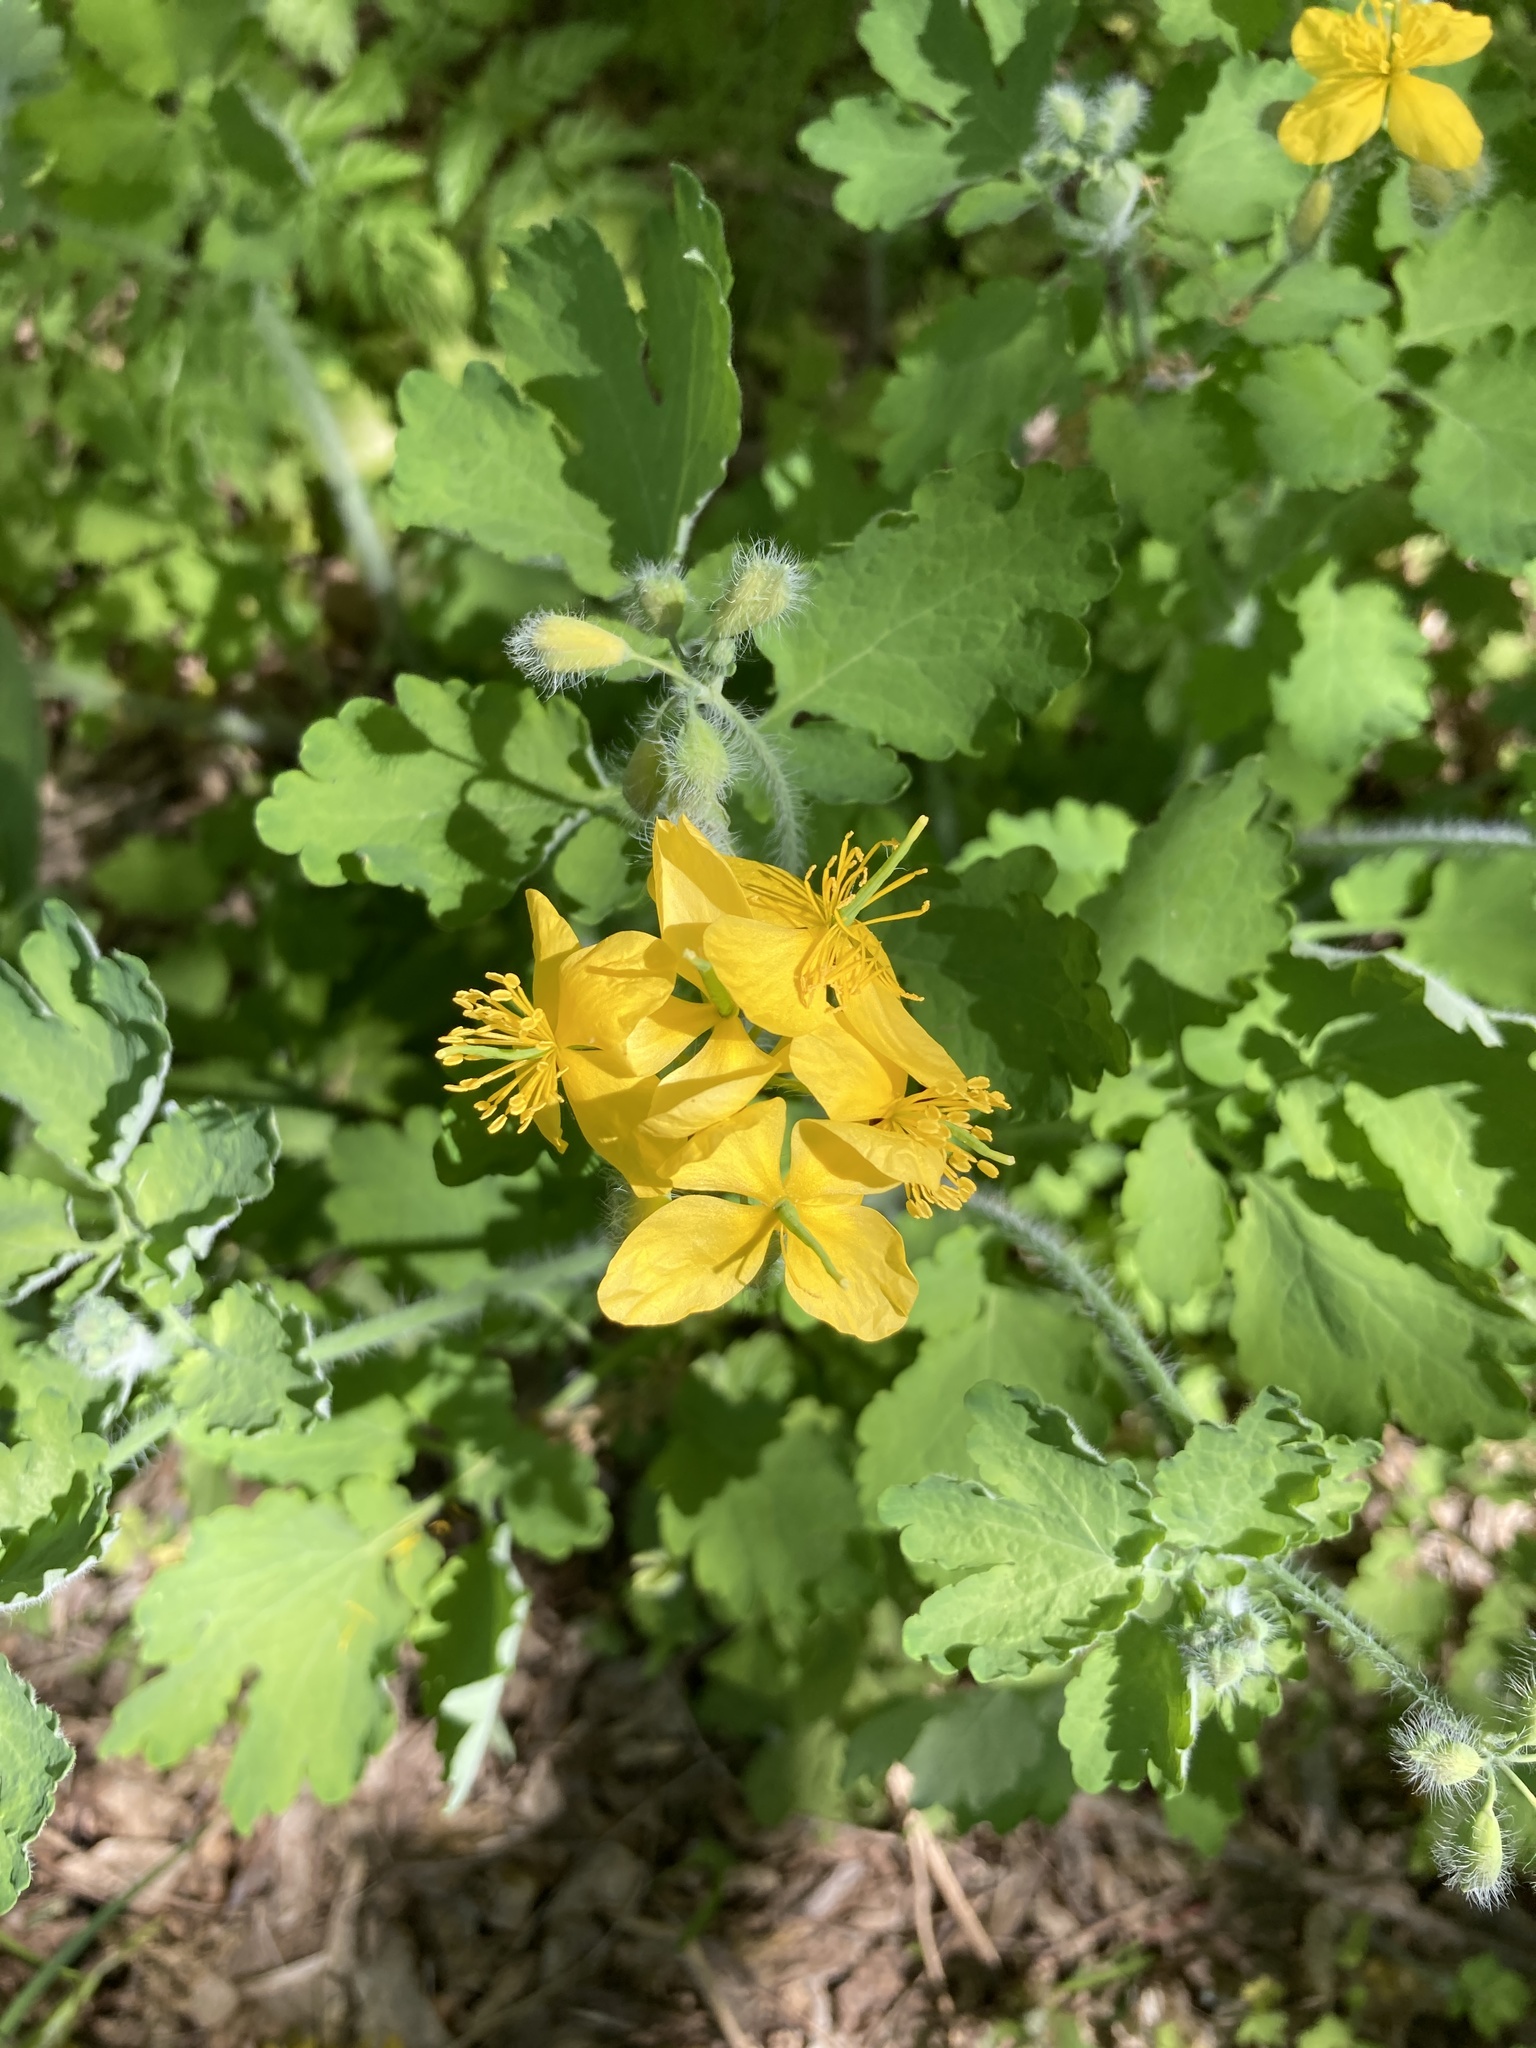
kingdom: Plantae
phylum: Tracheophyta
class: Magnoliopsida
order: Ranunculales
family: Papaveraceae
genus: Chelidonium
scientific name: Chelidonium majus
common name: Greater celandine
